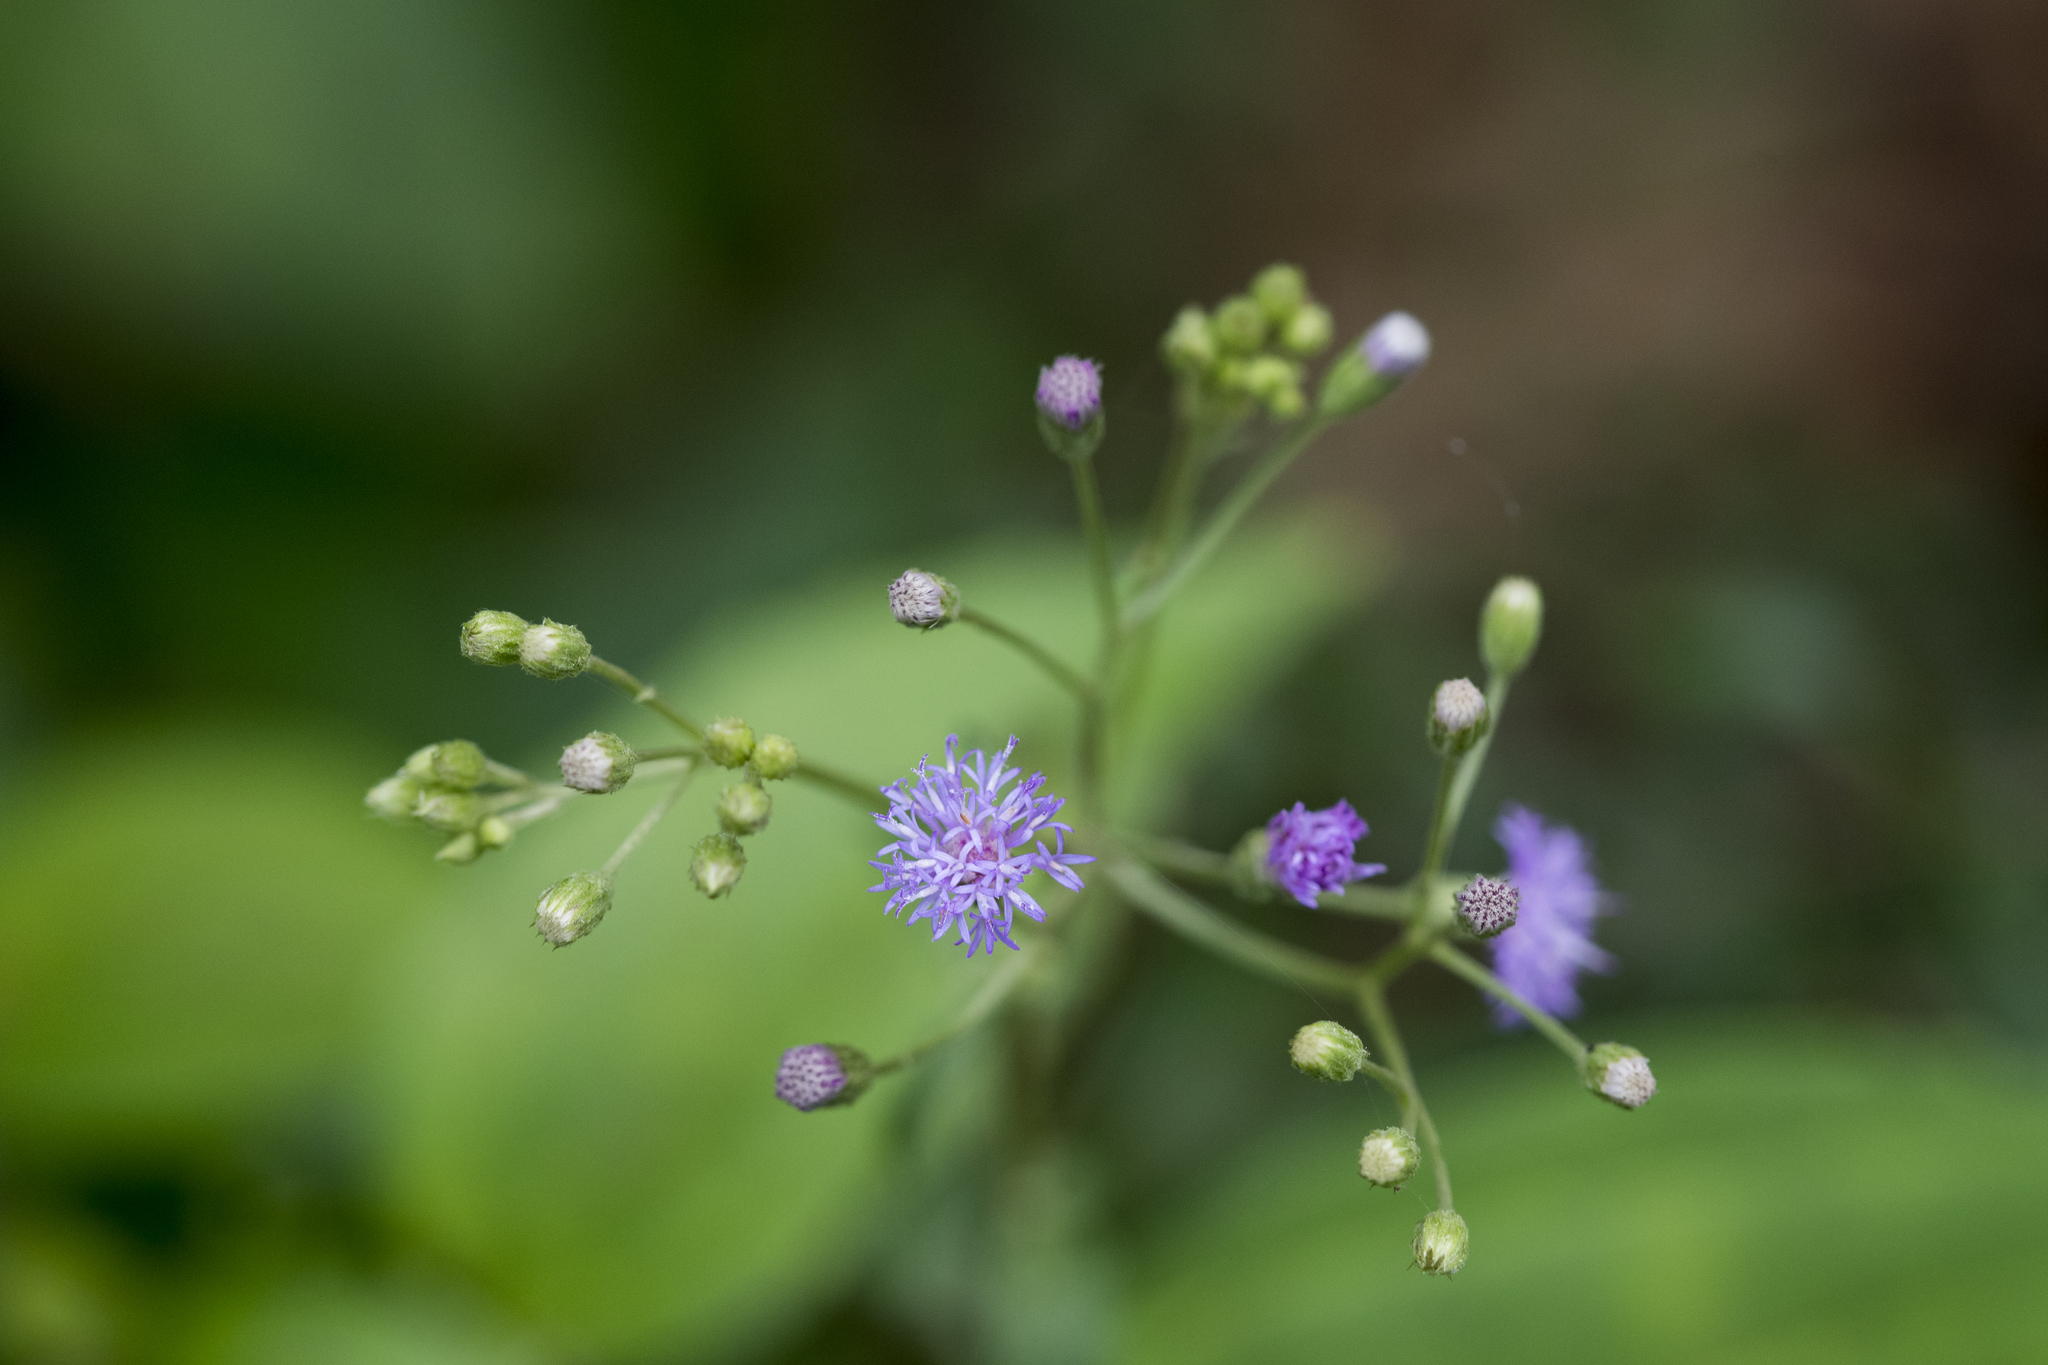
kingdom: Plantae
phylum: Tracheophyta
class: Magnoliopsida
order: Asterales
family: Asteraceae
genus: Cyanthillium
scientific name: Cyanthillium cinereum
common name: Little ironweed
